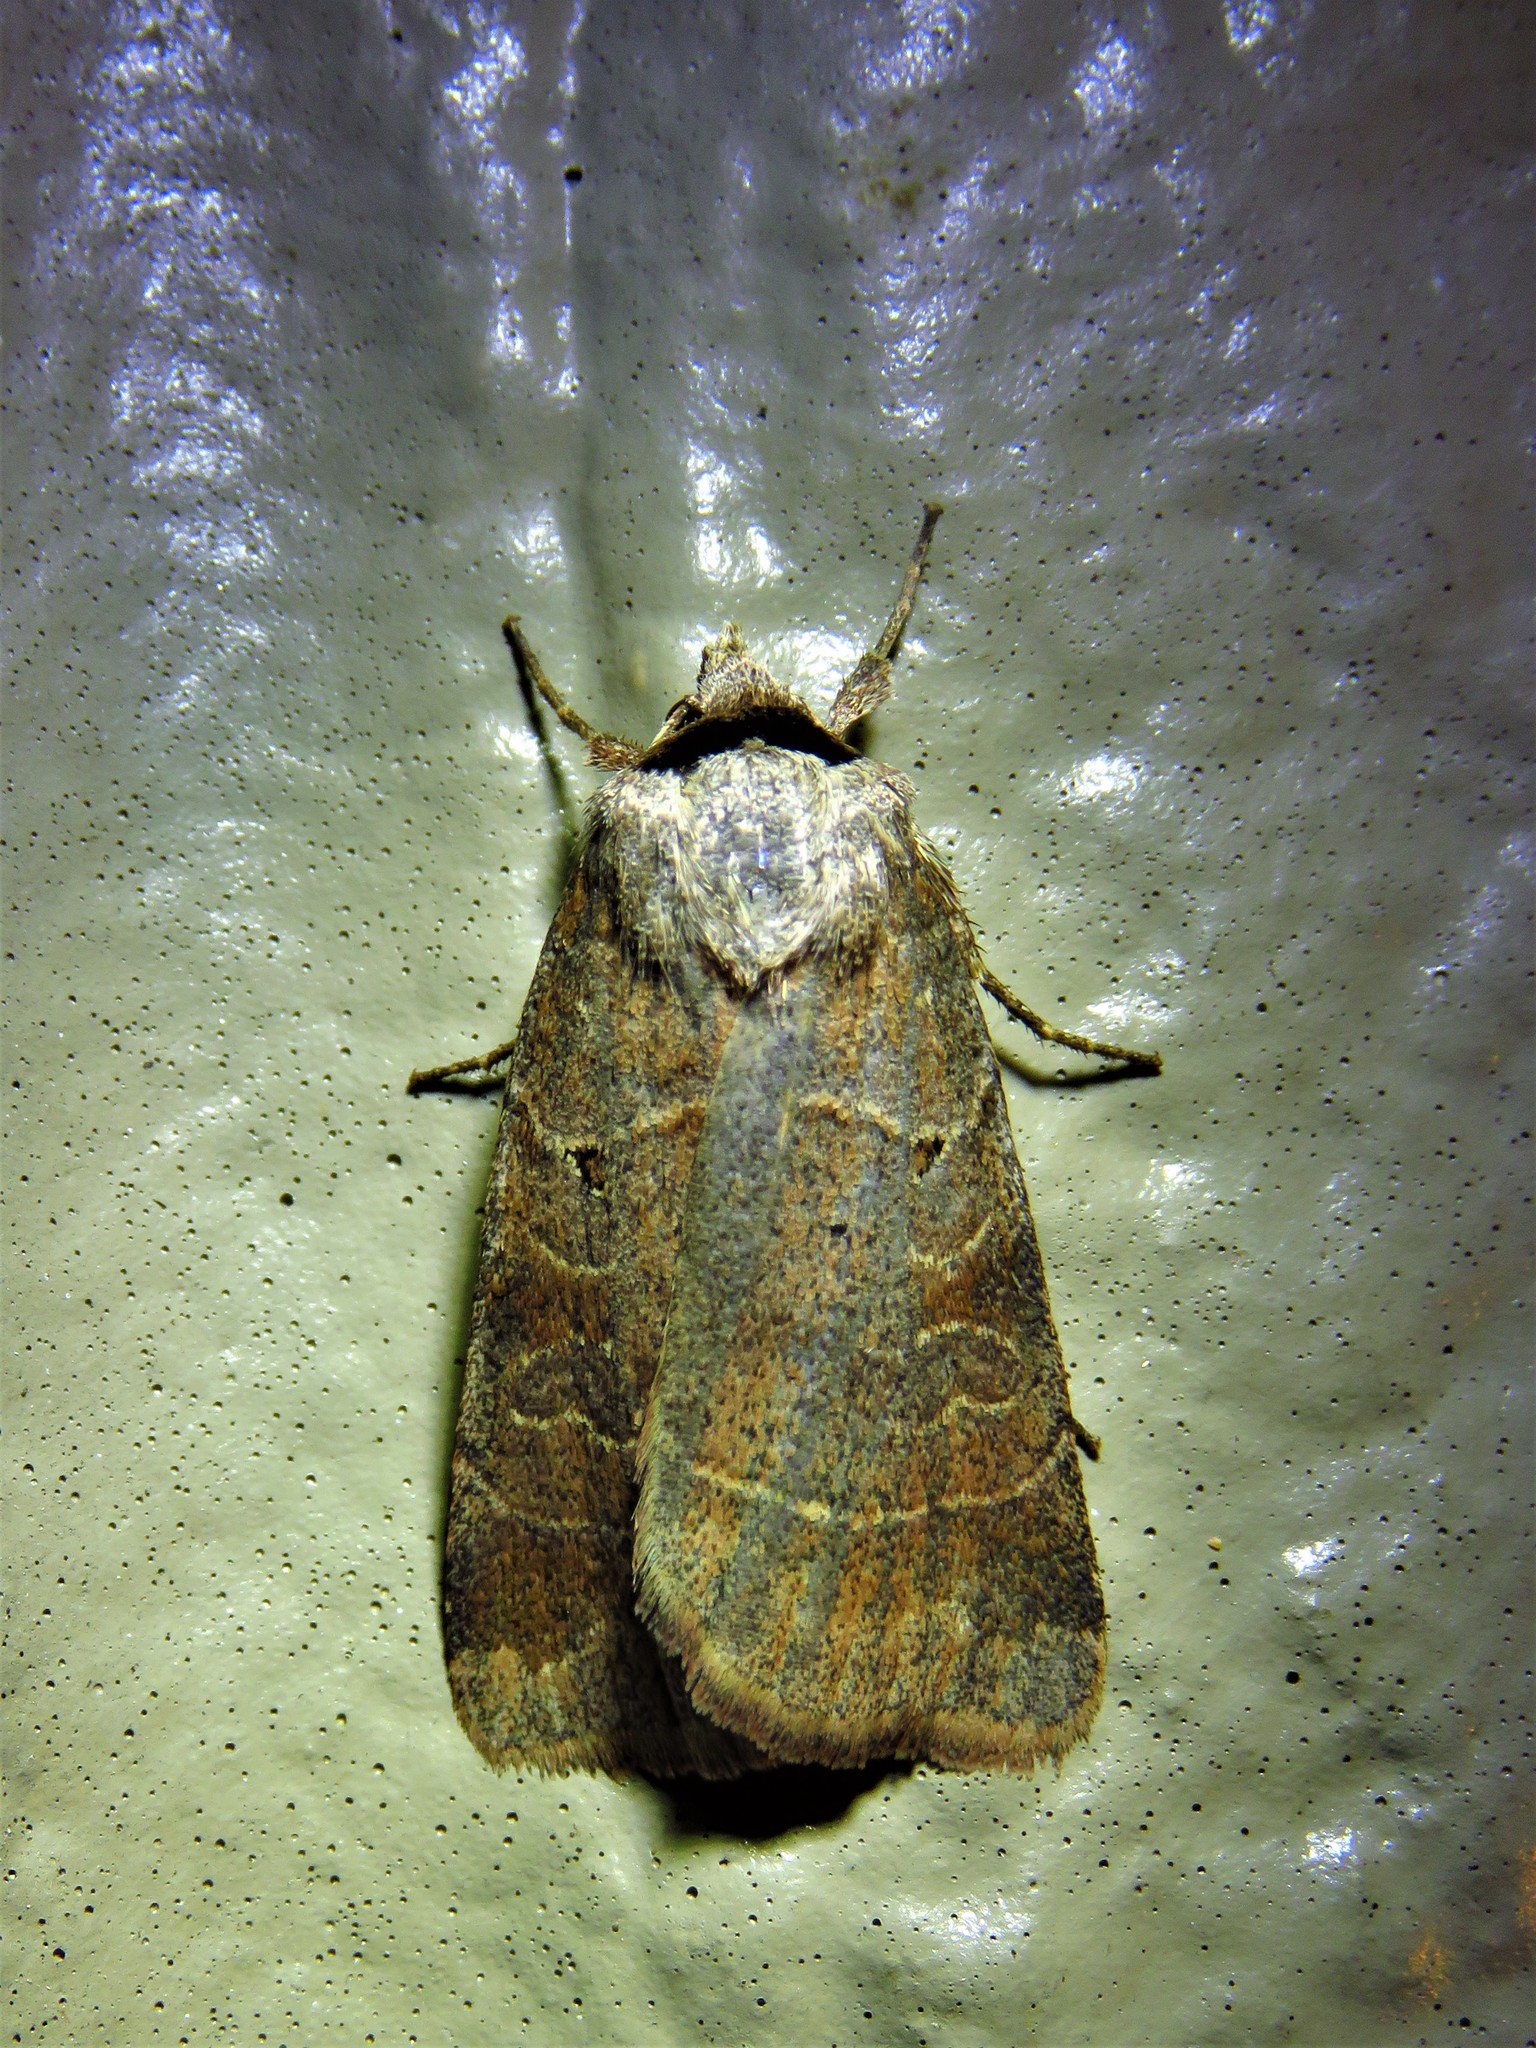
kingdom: Animalia
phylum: Arthropoda
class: Insecta
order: Lepidoptera
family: Noctuidae
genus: Agnorisma
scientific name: Agnorisma badinodis
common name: Pale-banded dart
